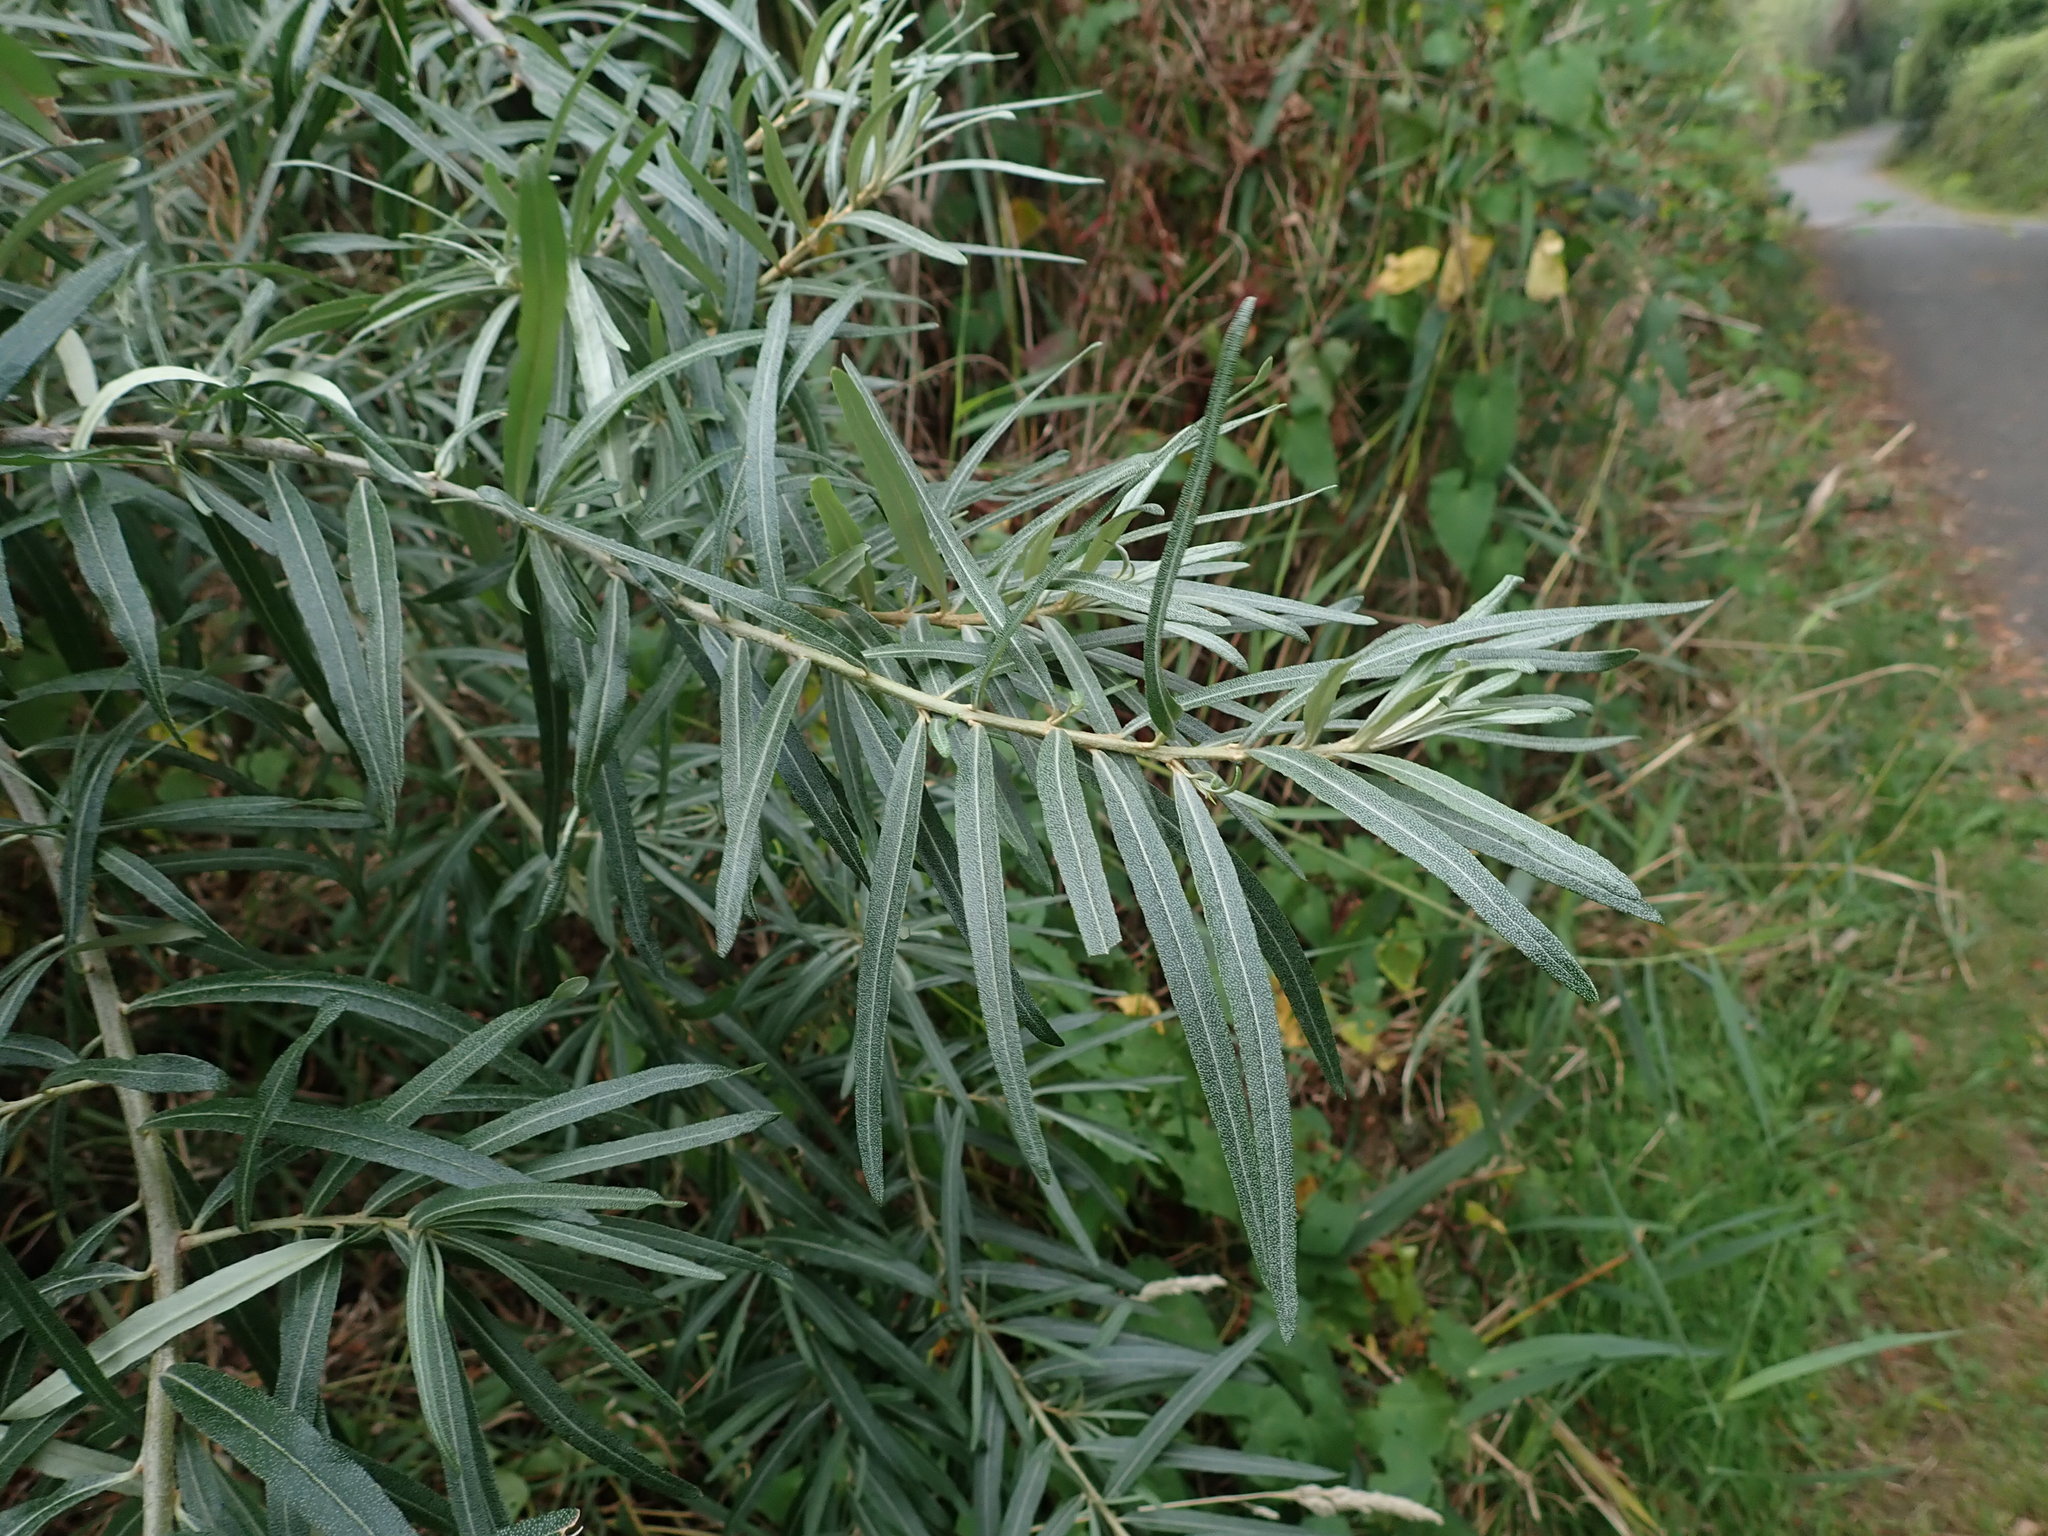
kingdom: Plantae
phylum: Tracheophyta
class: Magnoliopsida
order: Rosales
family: Elaeagnaceae
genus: Hippophae
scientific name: Hippophae rhamnoides
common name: Sea-buckthorn
